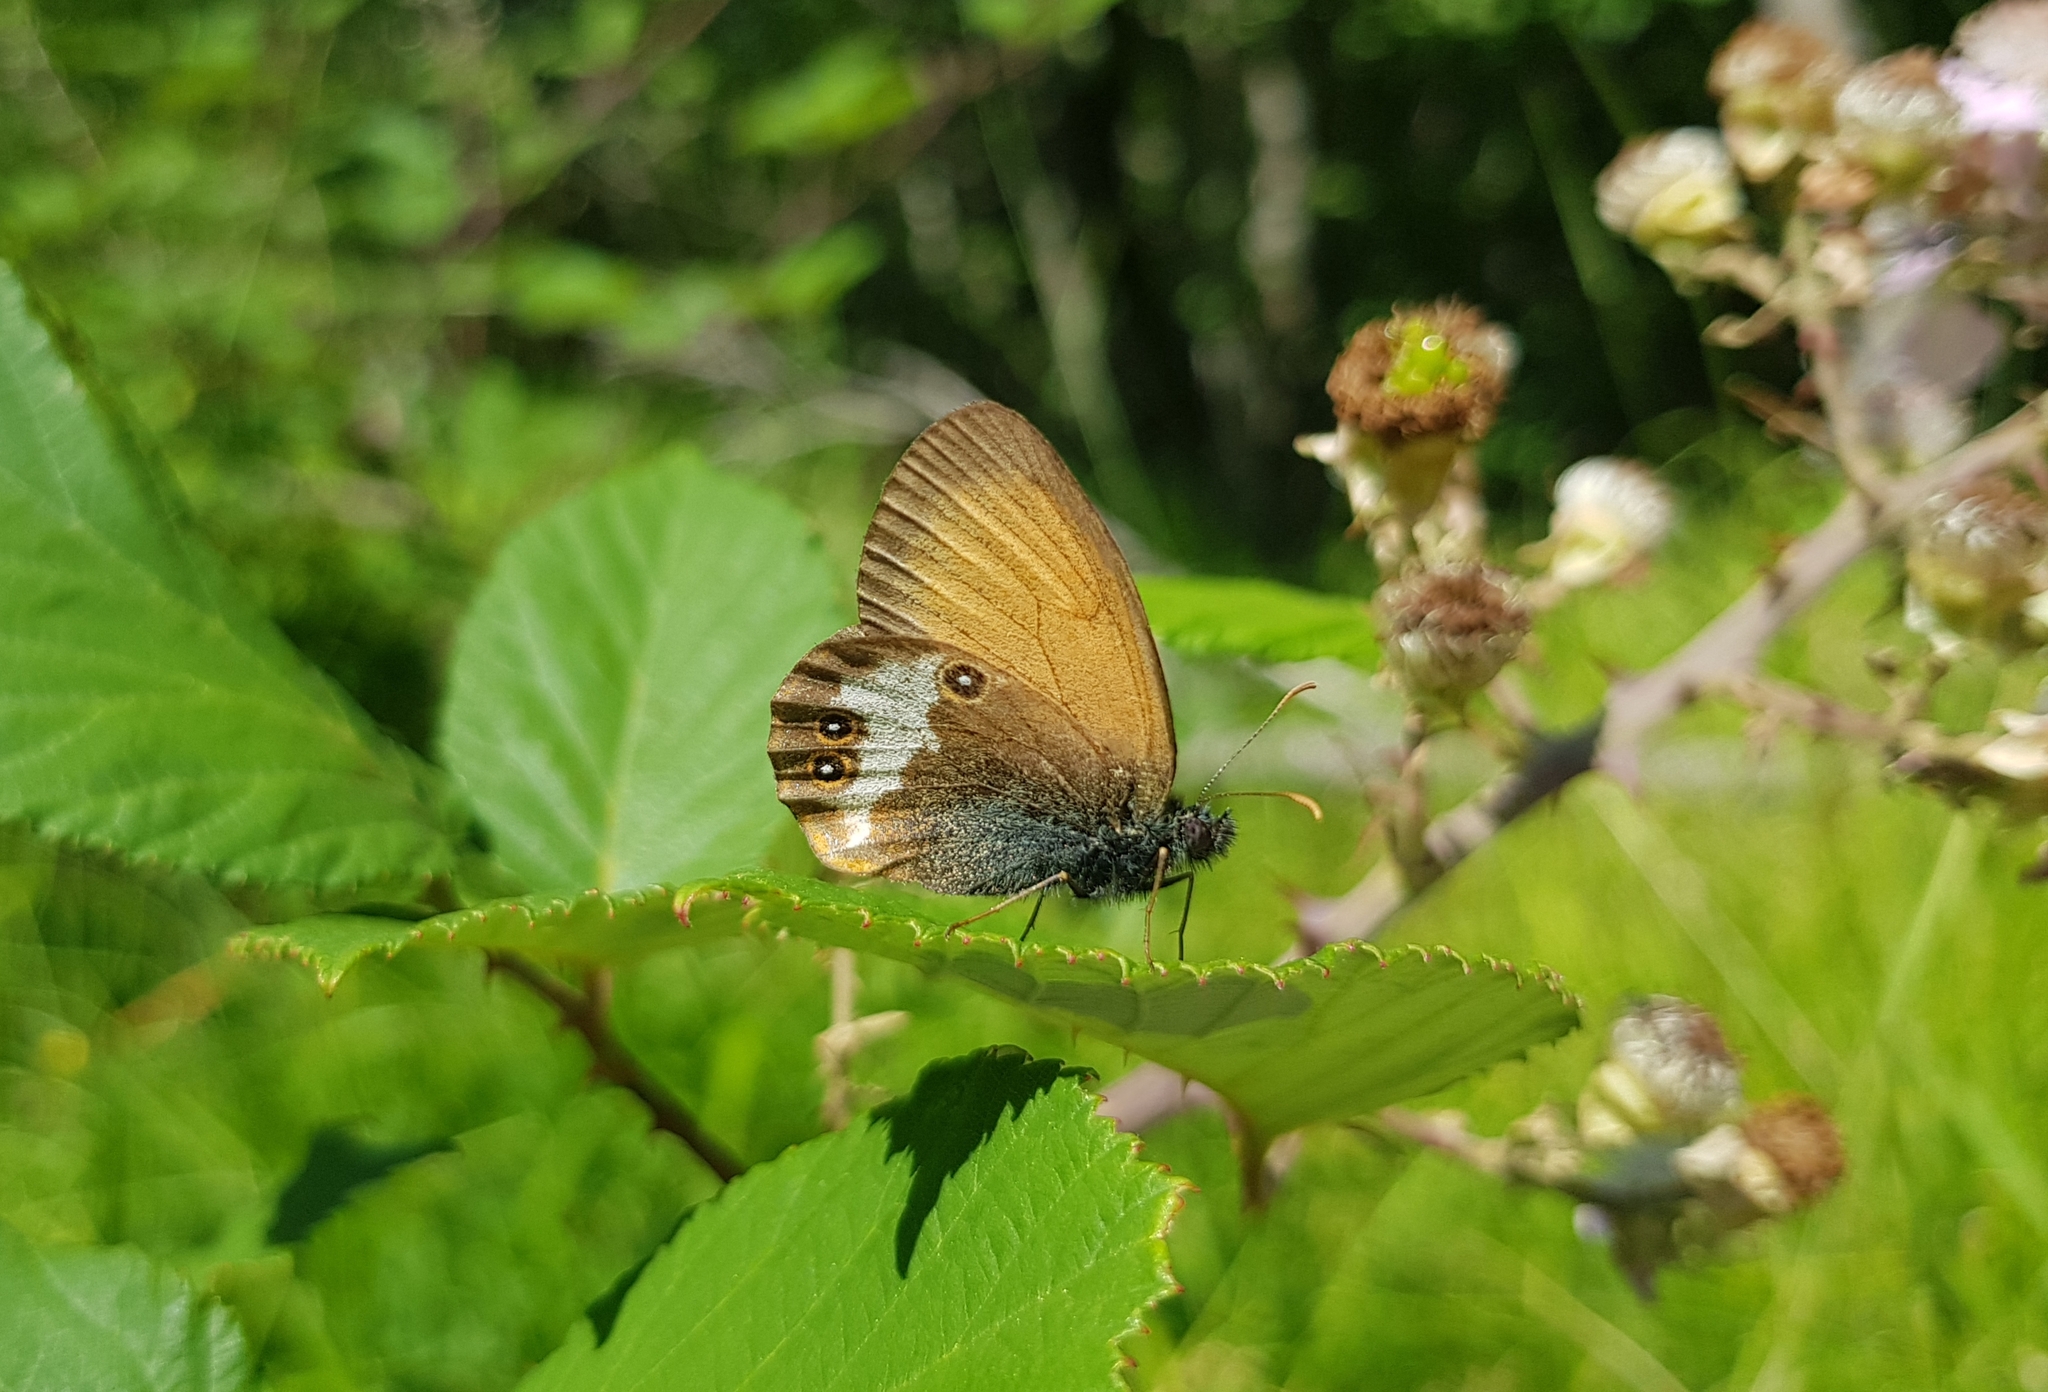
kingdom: Animalia
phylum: Arthropoda
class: Insecta
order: Lepidoptera
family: Nymphalidae
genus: Coenonympha
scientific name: Coenonympha arcania
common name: Pearly heath
